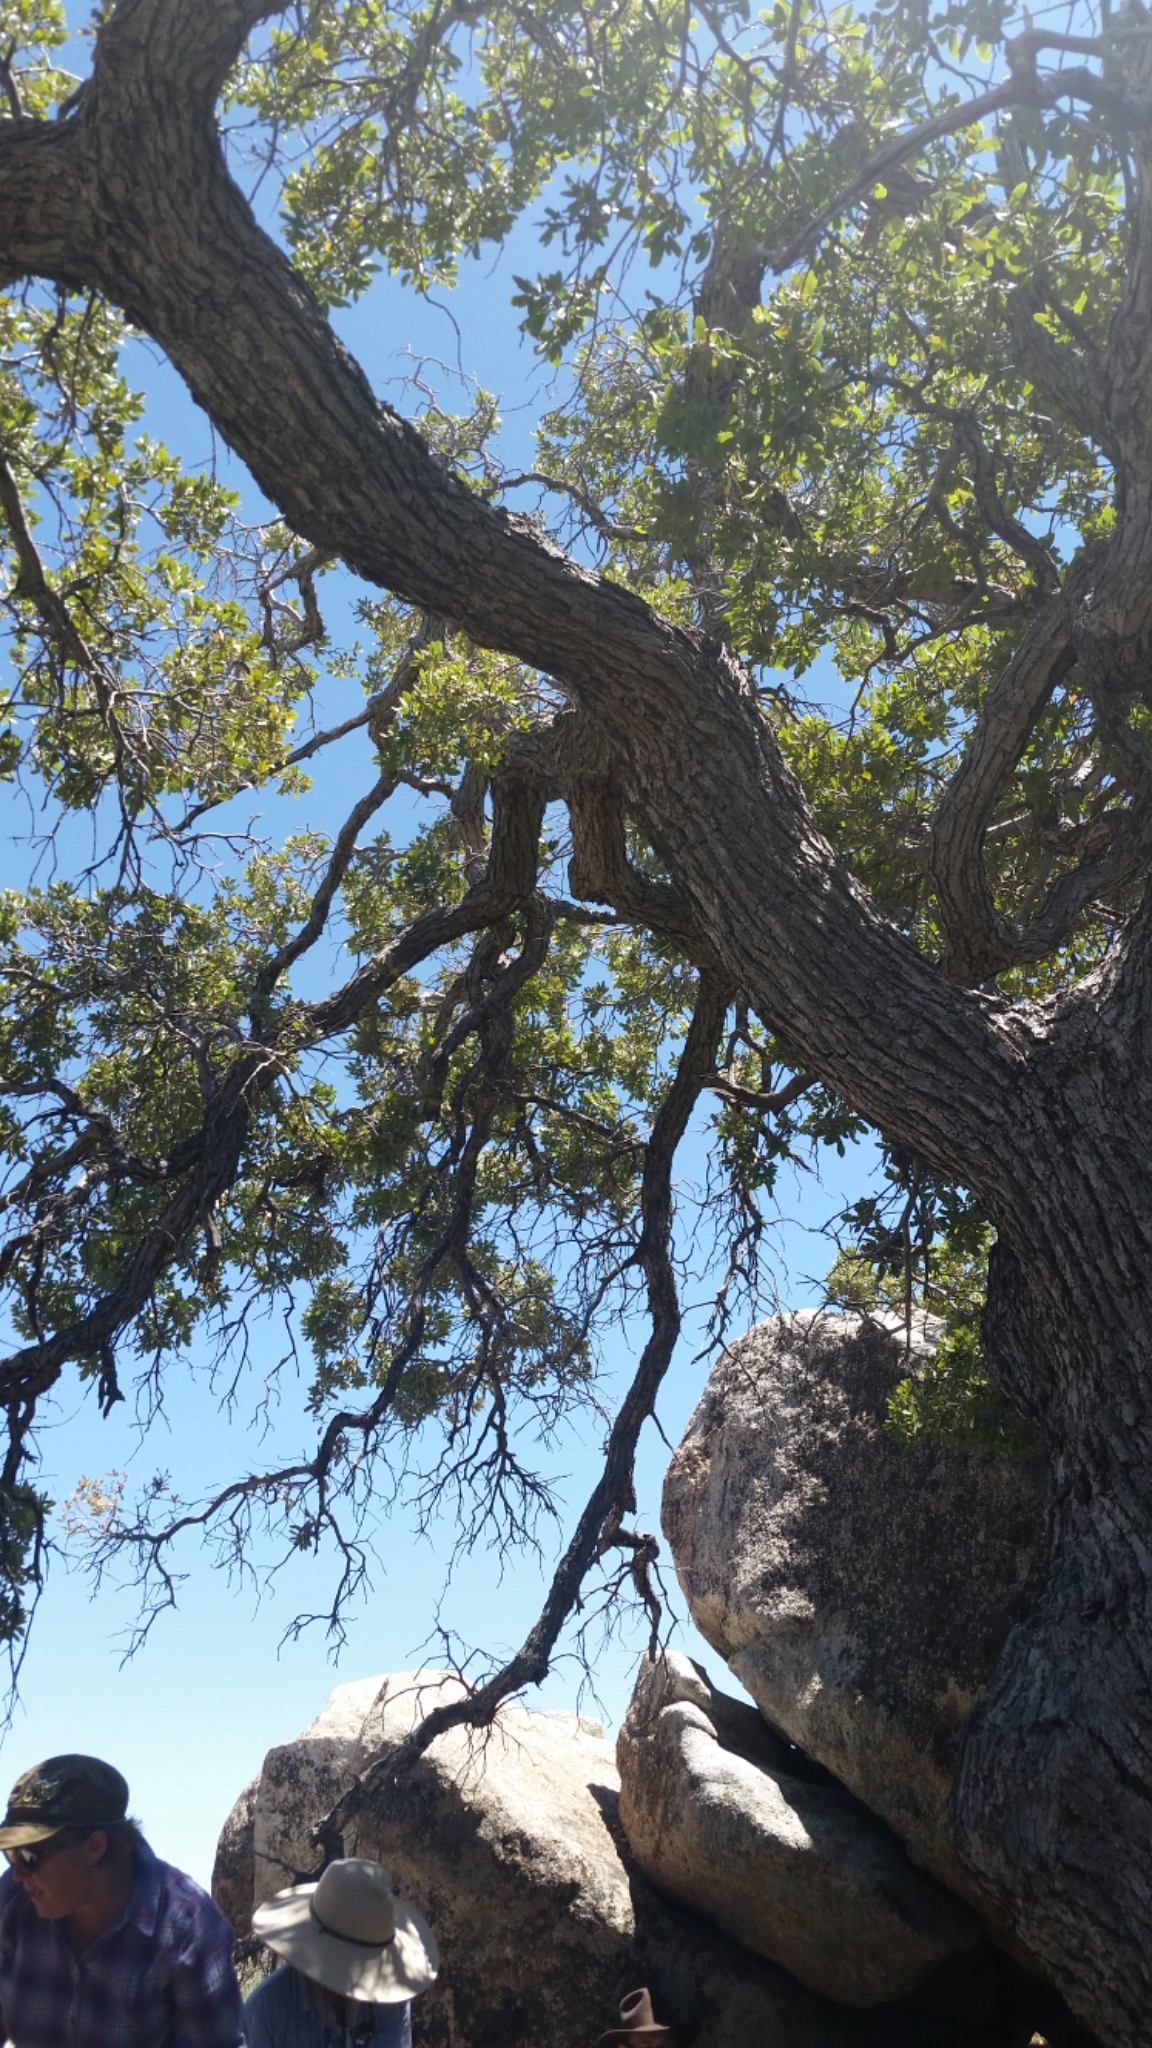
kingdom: Plantae
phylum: Tracheophyta
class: Magnoliopsida
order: Fagales
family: Fagaceae
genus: Quercus
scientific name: Quercus engelmannii
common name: Engelmann oak
